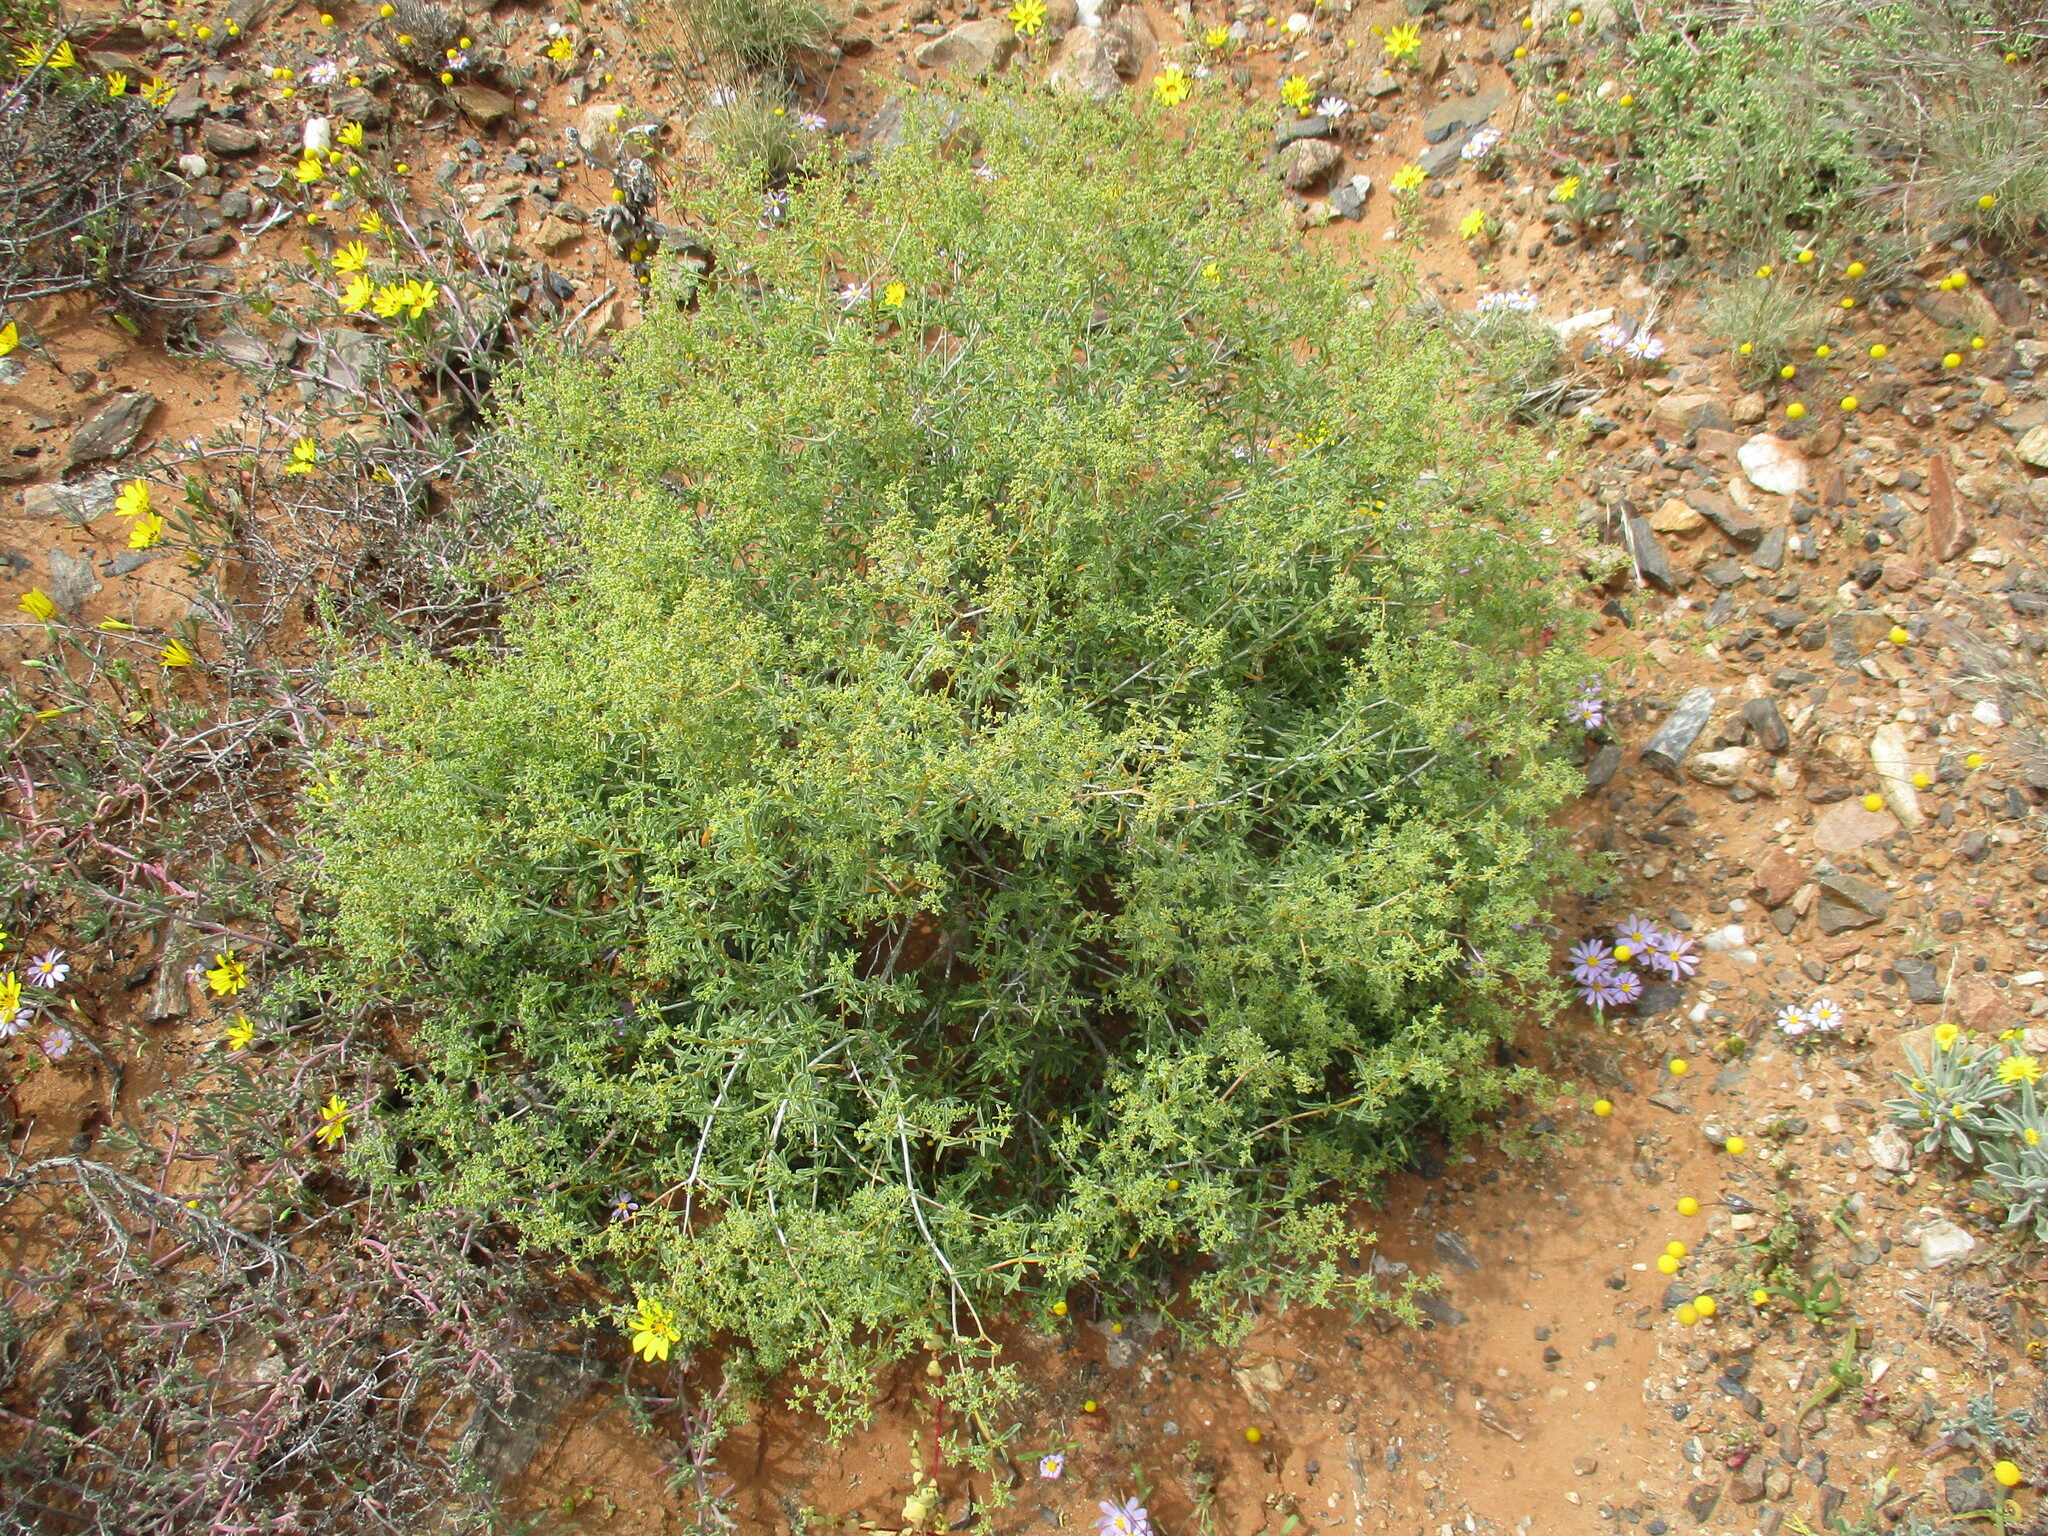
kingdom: Plantae
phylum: Tracheophyta
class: Magnoliopsida
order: Caryophyllales
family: Aizoaceae
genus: Aizoon
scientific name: Aizoon africanum
